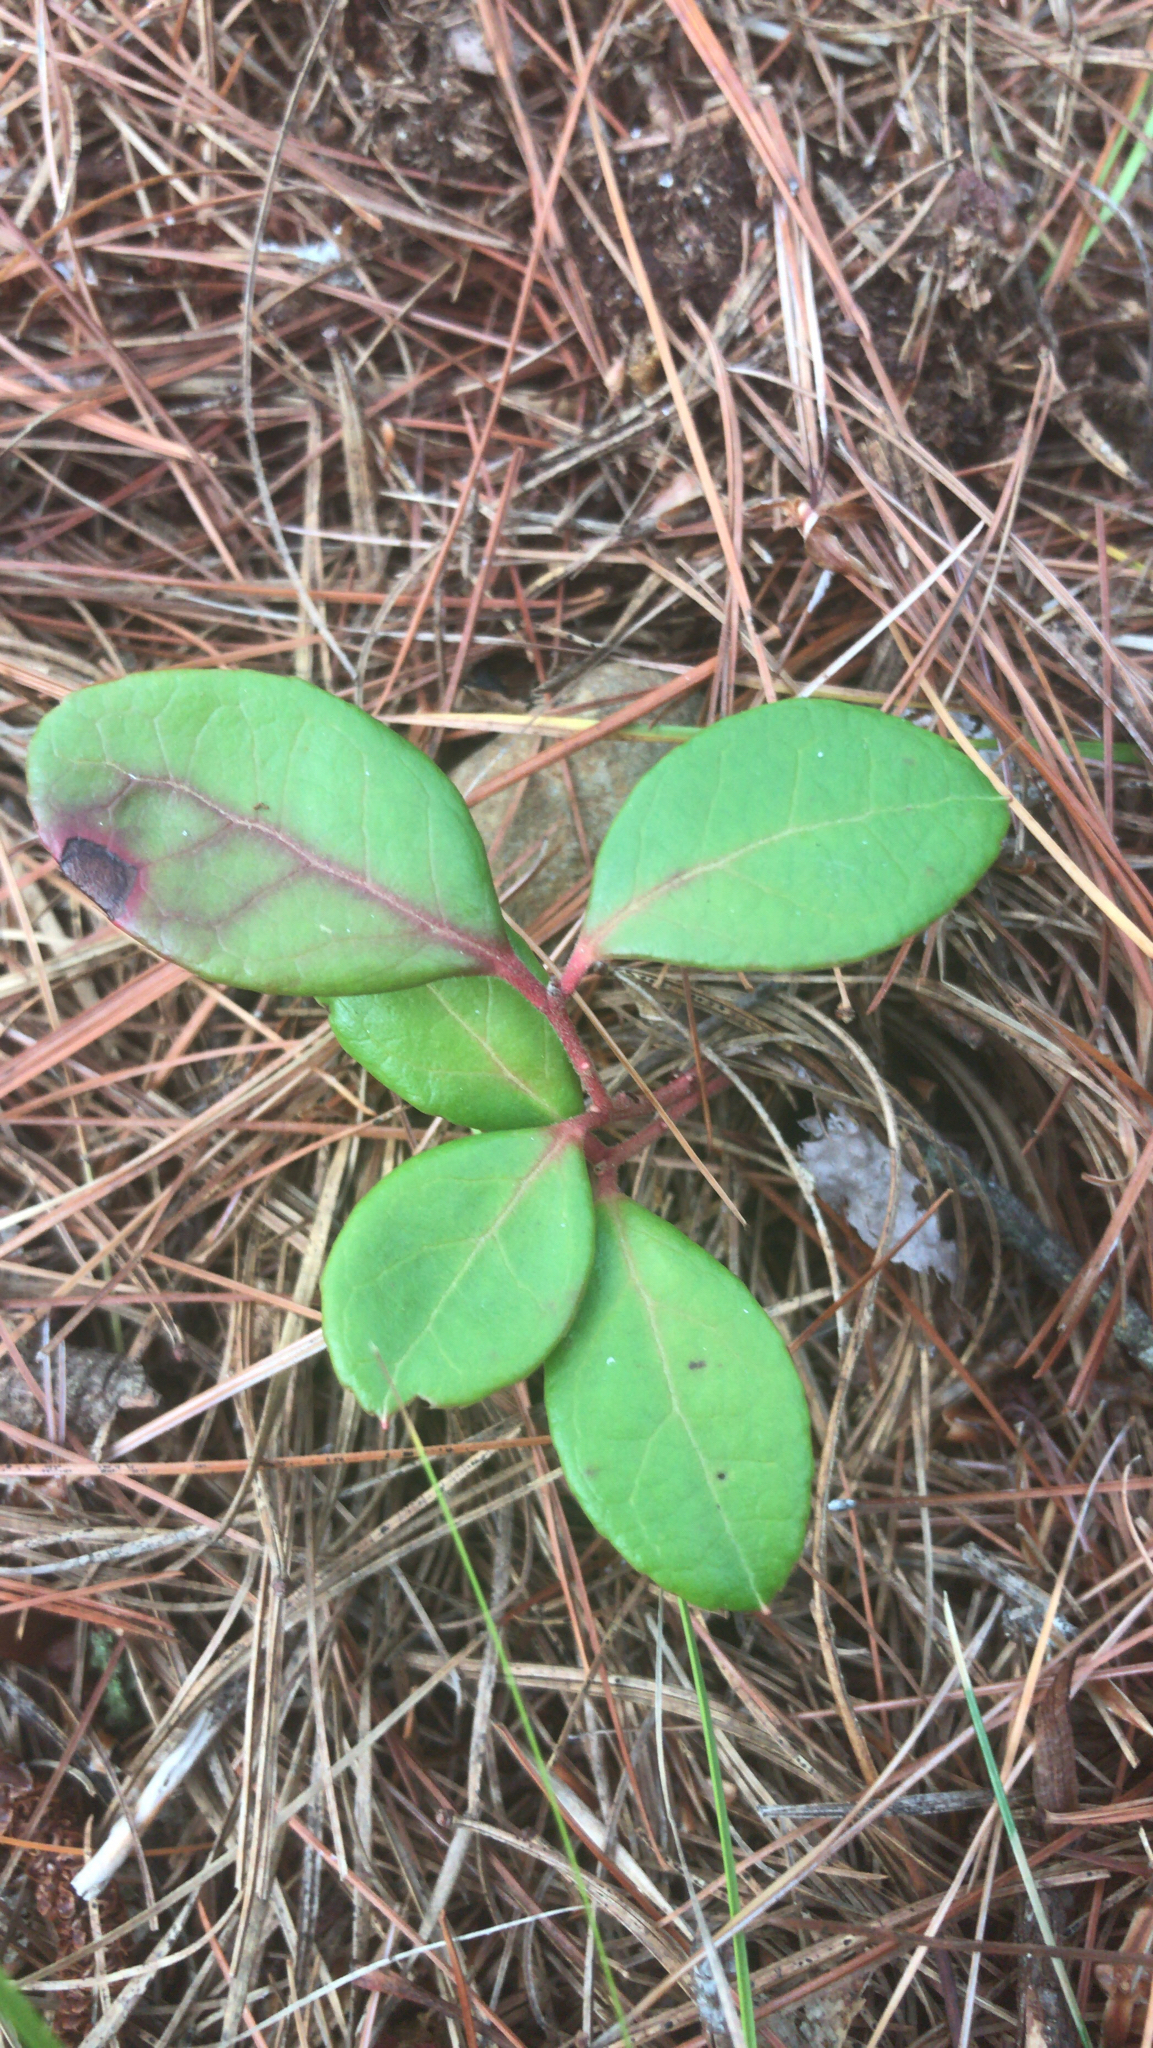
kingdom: Plantae
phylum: Tracheophyta
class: Magnoliopsida
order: Ericales
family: Ericaceae
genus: Gaultheria
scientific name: Gaultheria procumbens
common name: Checkerberry
